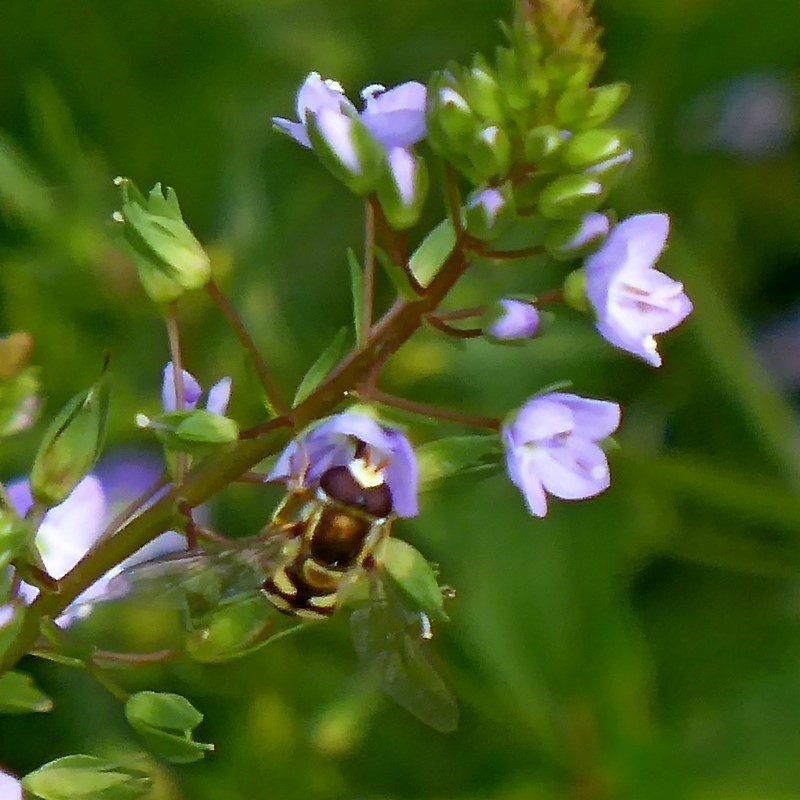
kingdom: Animalia
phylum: Arthropoda
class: Insecta
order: Diptera
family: Syrphidae
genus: Simosyrphus
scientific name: Simosyrphus grandicornis
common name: Hoverfly
